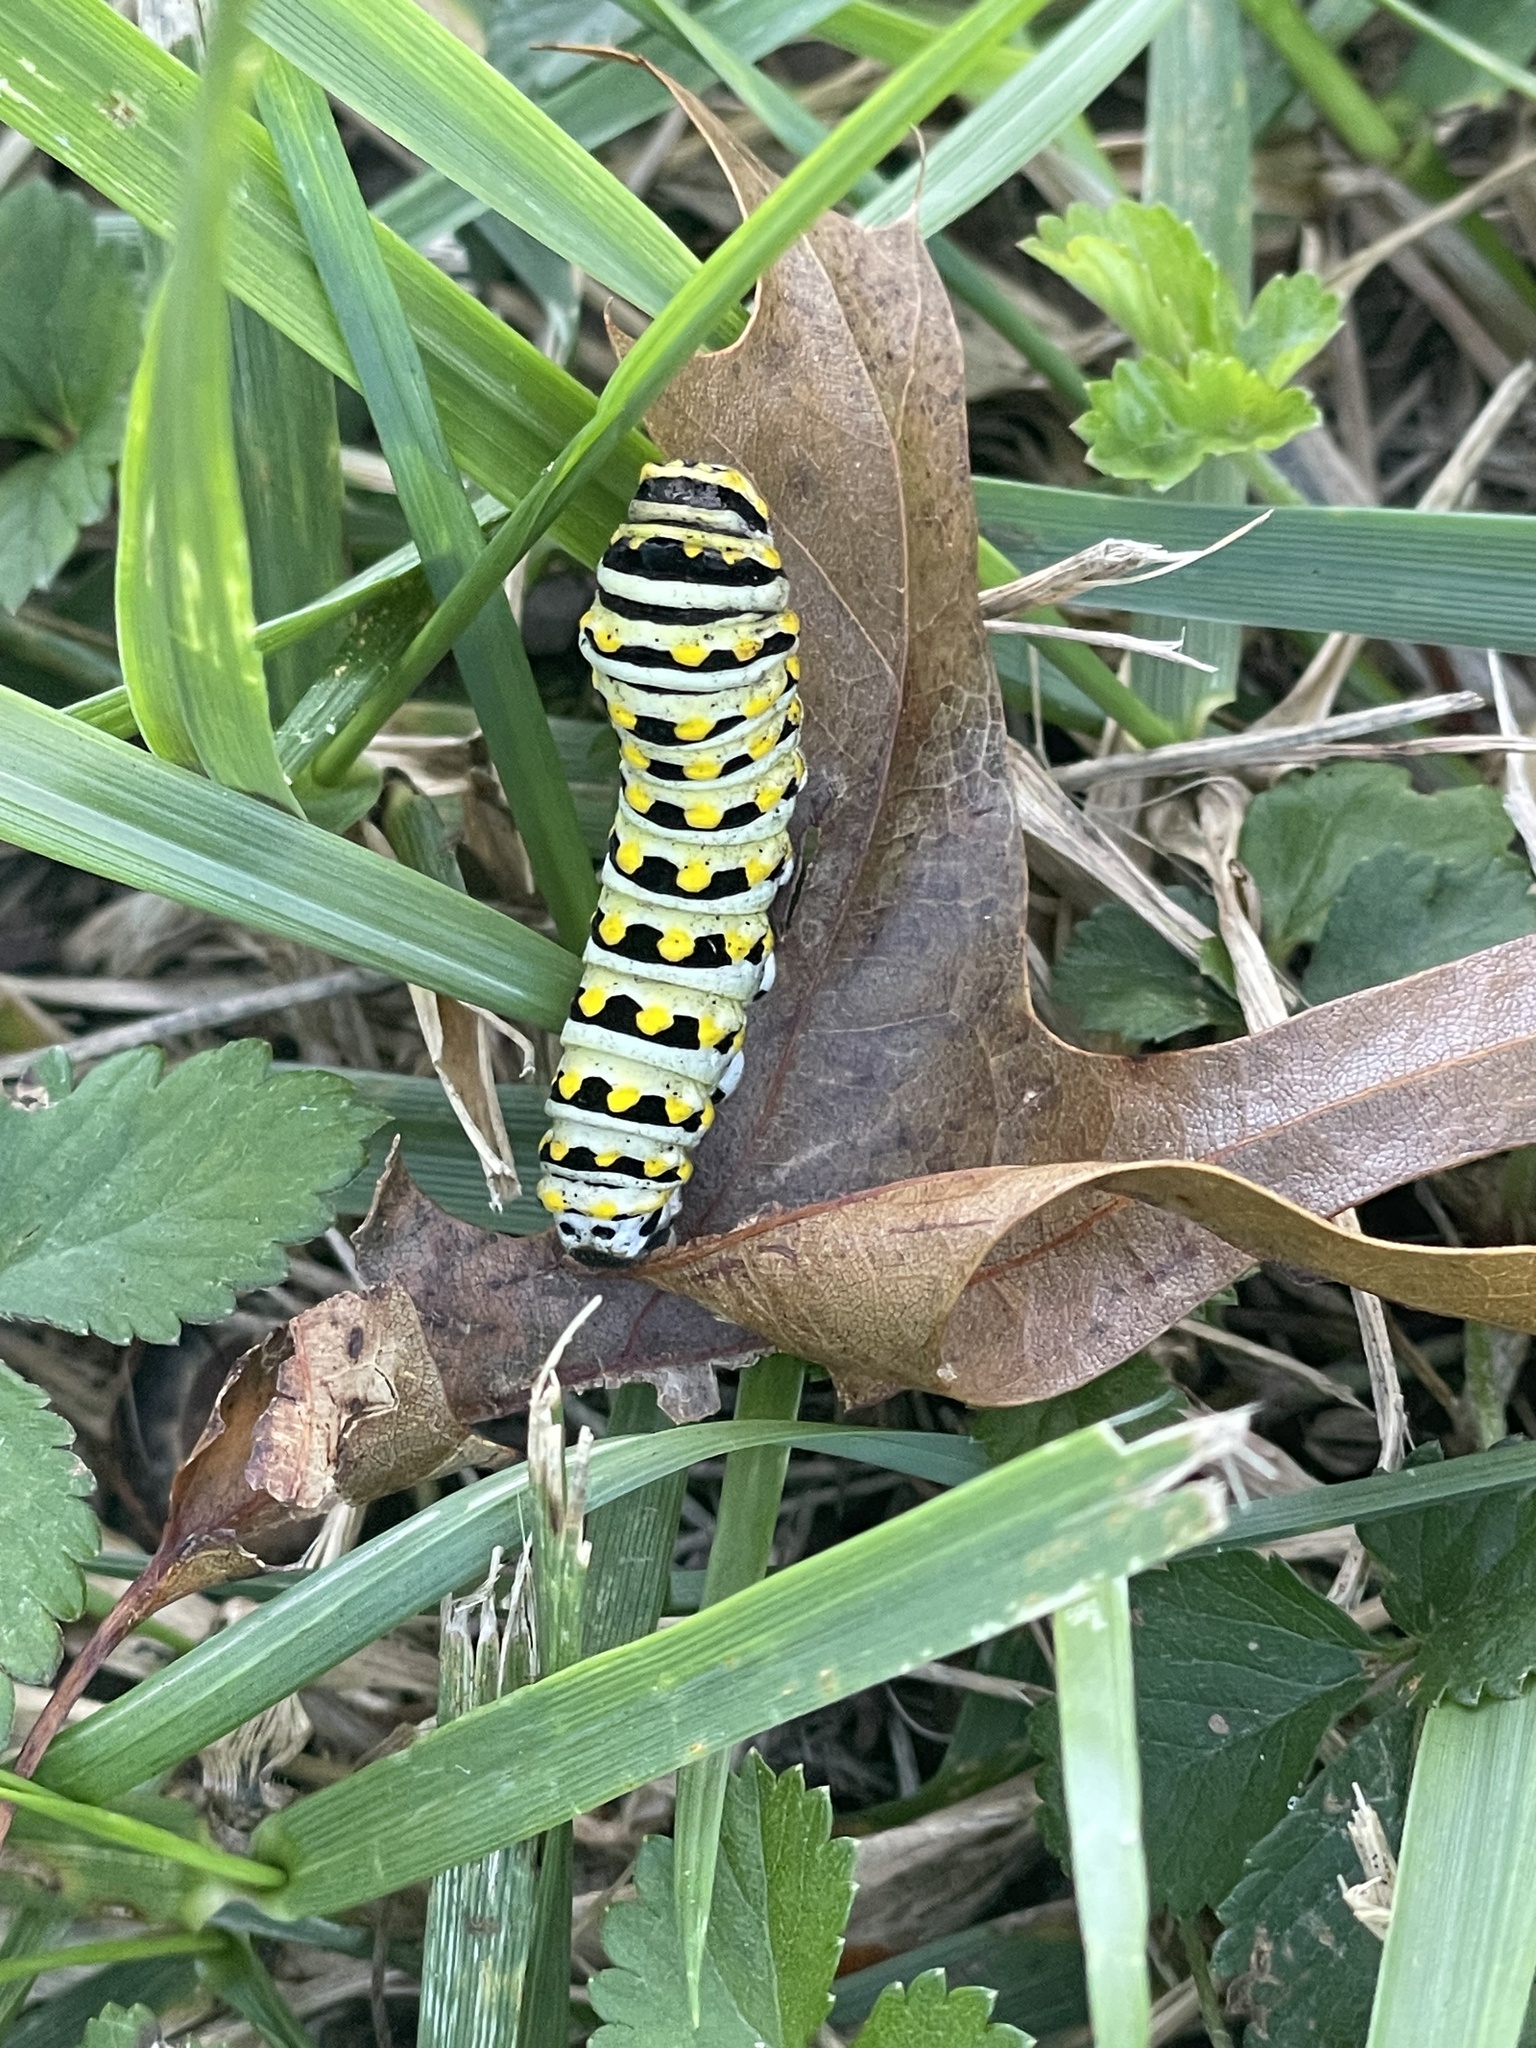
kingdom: Animalia
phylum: Arthropoda
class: Insecta
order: Lepidoptera
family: Papilionidae
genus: Papilio
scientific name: Papilio polyxenes
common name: Black swallowtail
